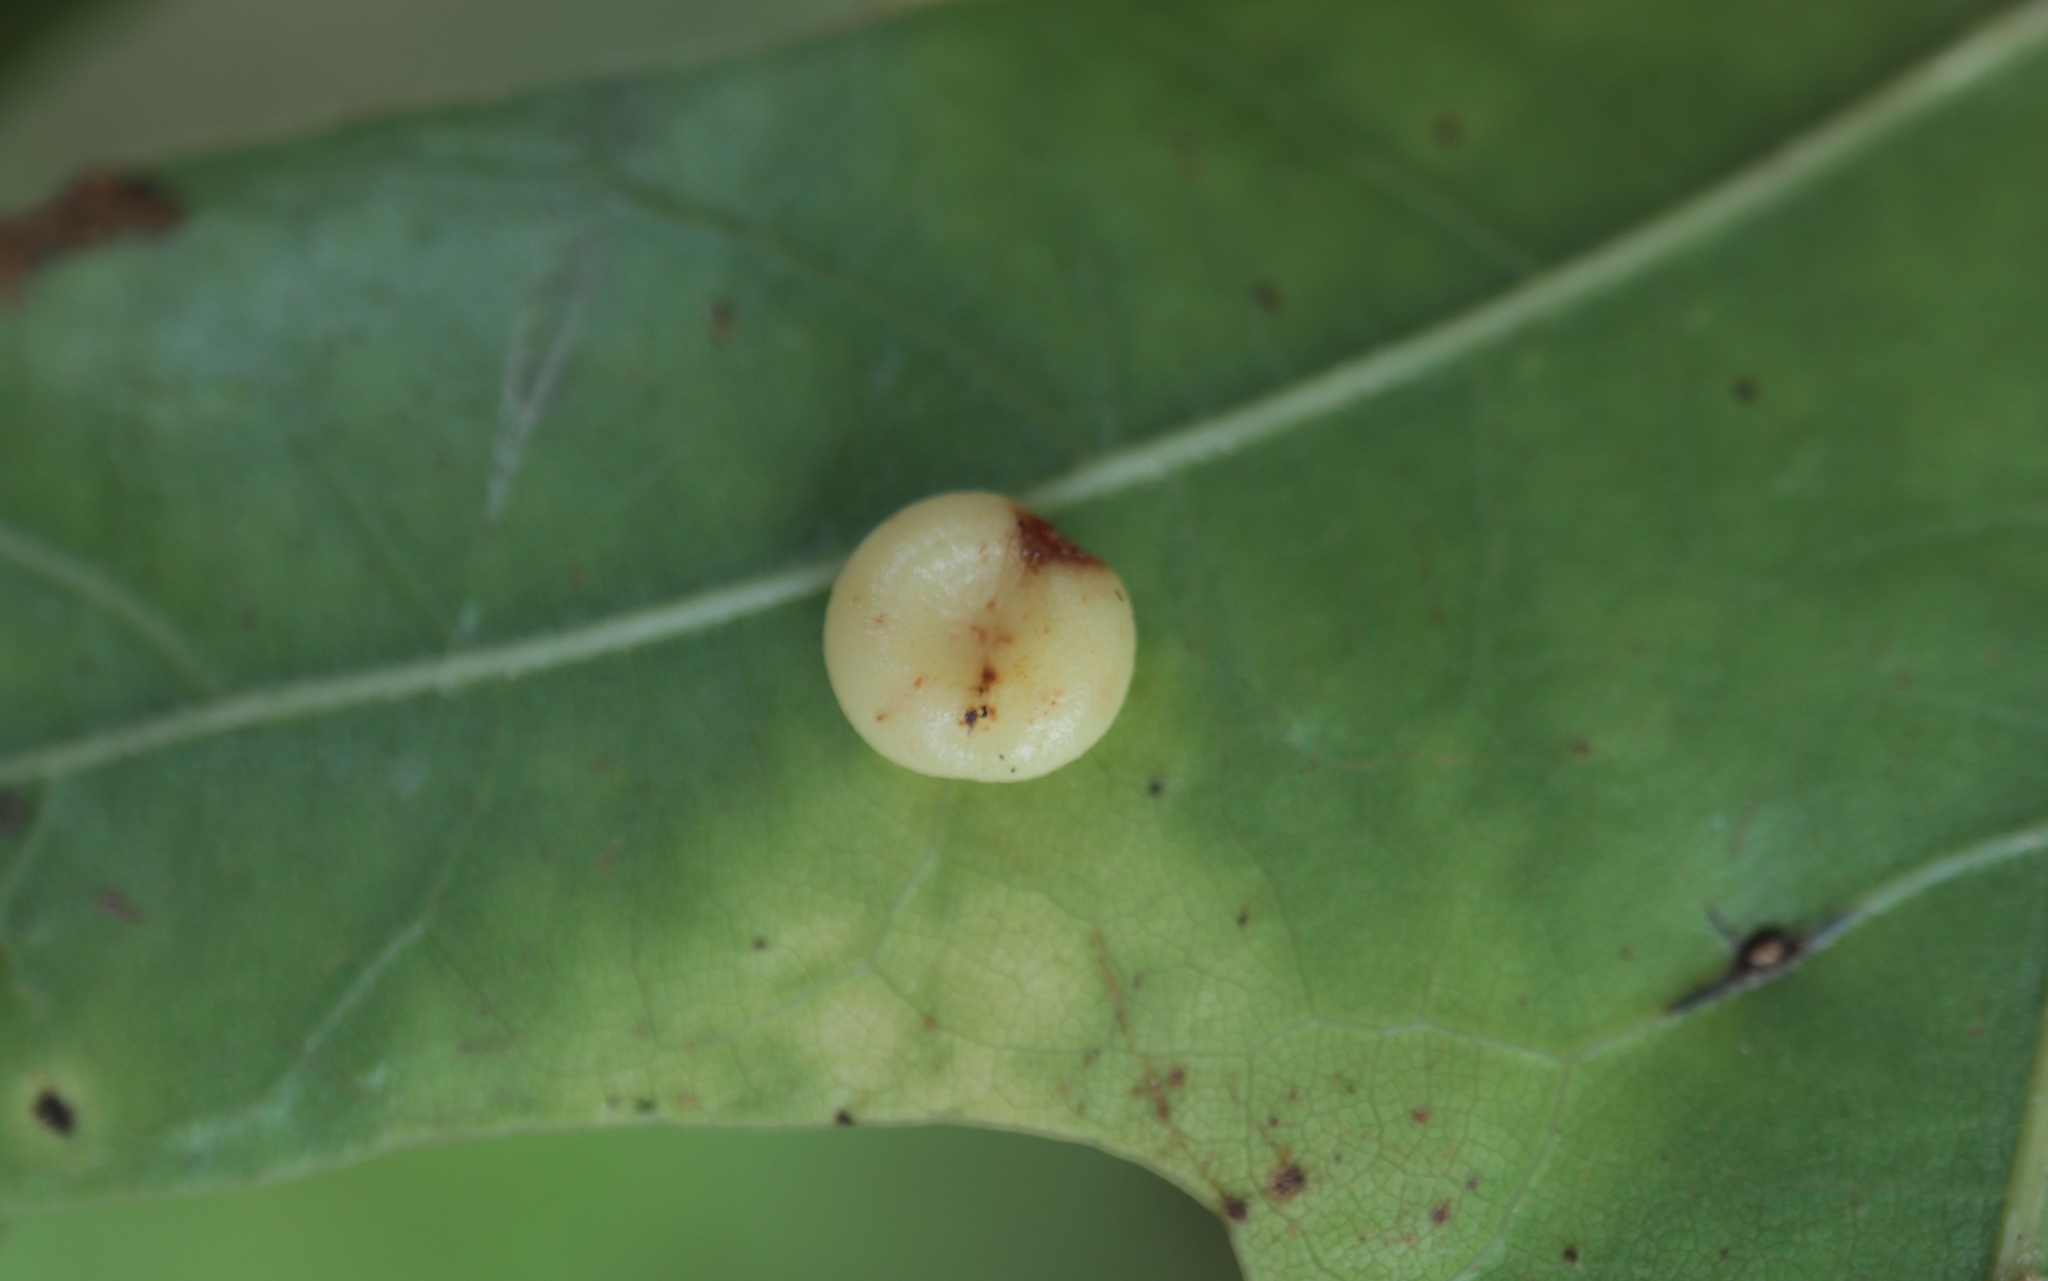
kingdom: Animalia
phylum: Arthropoda
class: Insecta
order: Hymenoptera
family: Cynipidae
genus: Dryocosmus
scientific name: Dryocosmus
